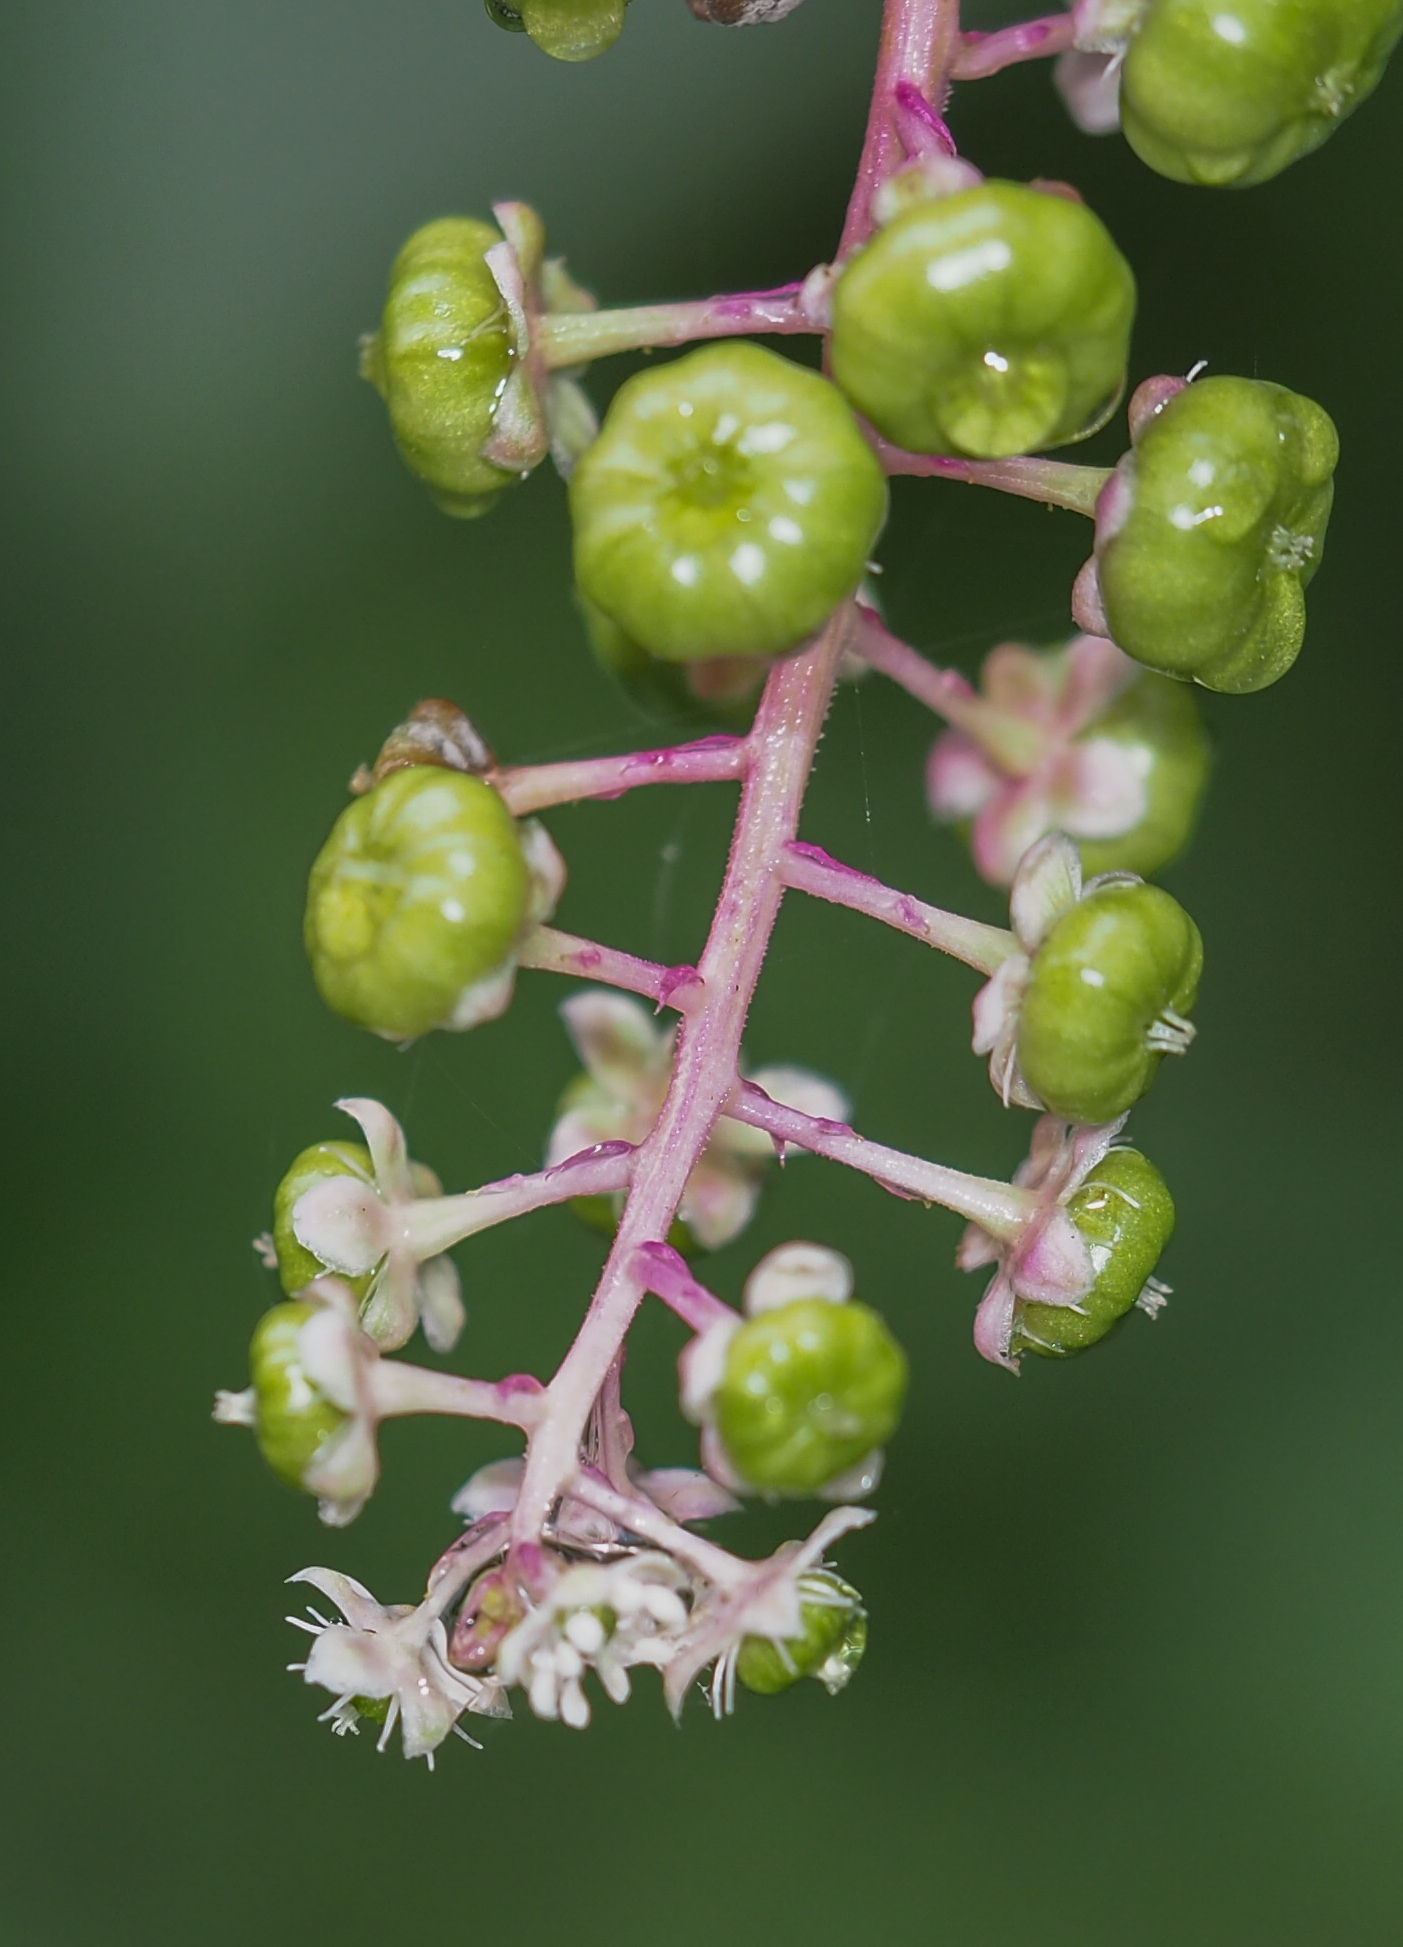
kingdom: Plantae
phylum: Tracheophyta
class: Magnoliopsida
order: Caryophyllales
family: Phytolaccaceae
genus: Phytolacca
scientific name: Phytolacca americana
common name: American pokeweed
